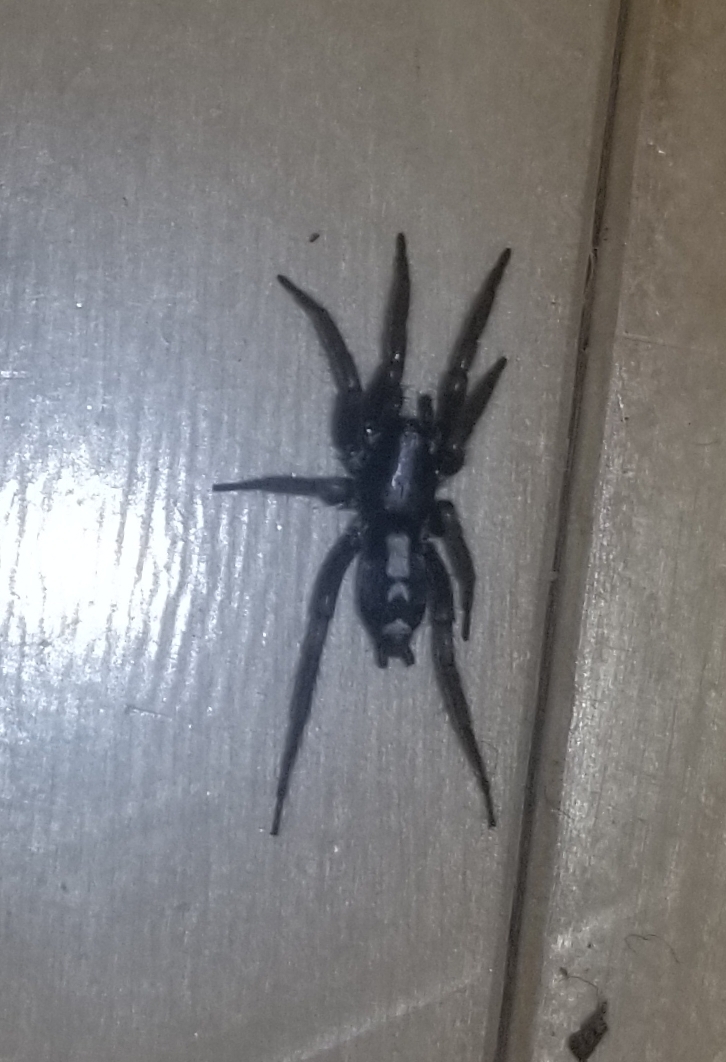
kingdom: Animalia
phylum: Arthropoda
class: Arachnida
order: Araneae
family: Gnaphosidae
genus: Herpyllus
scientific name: Herpyllus ecclesiasticus
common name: Eastern parson spider
